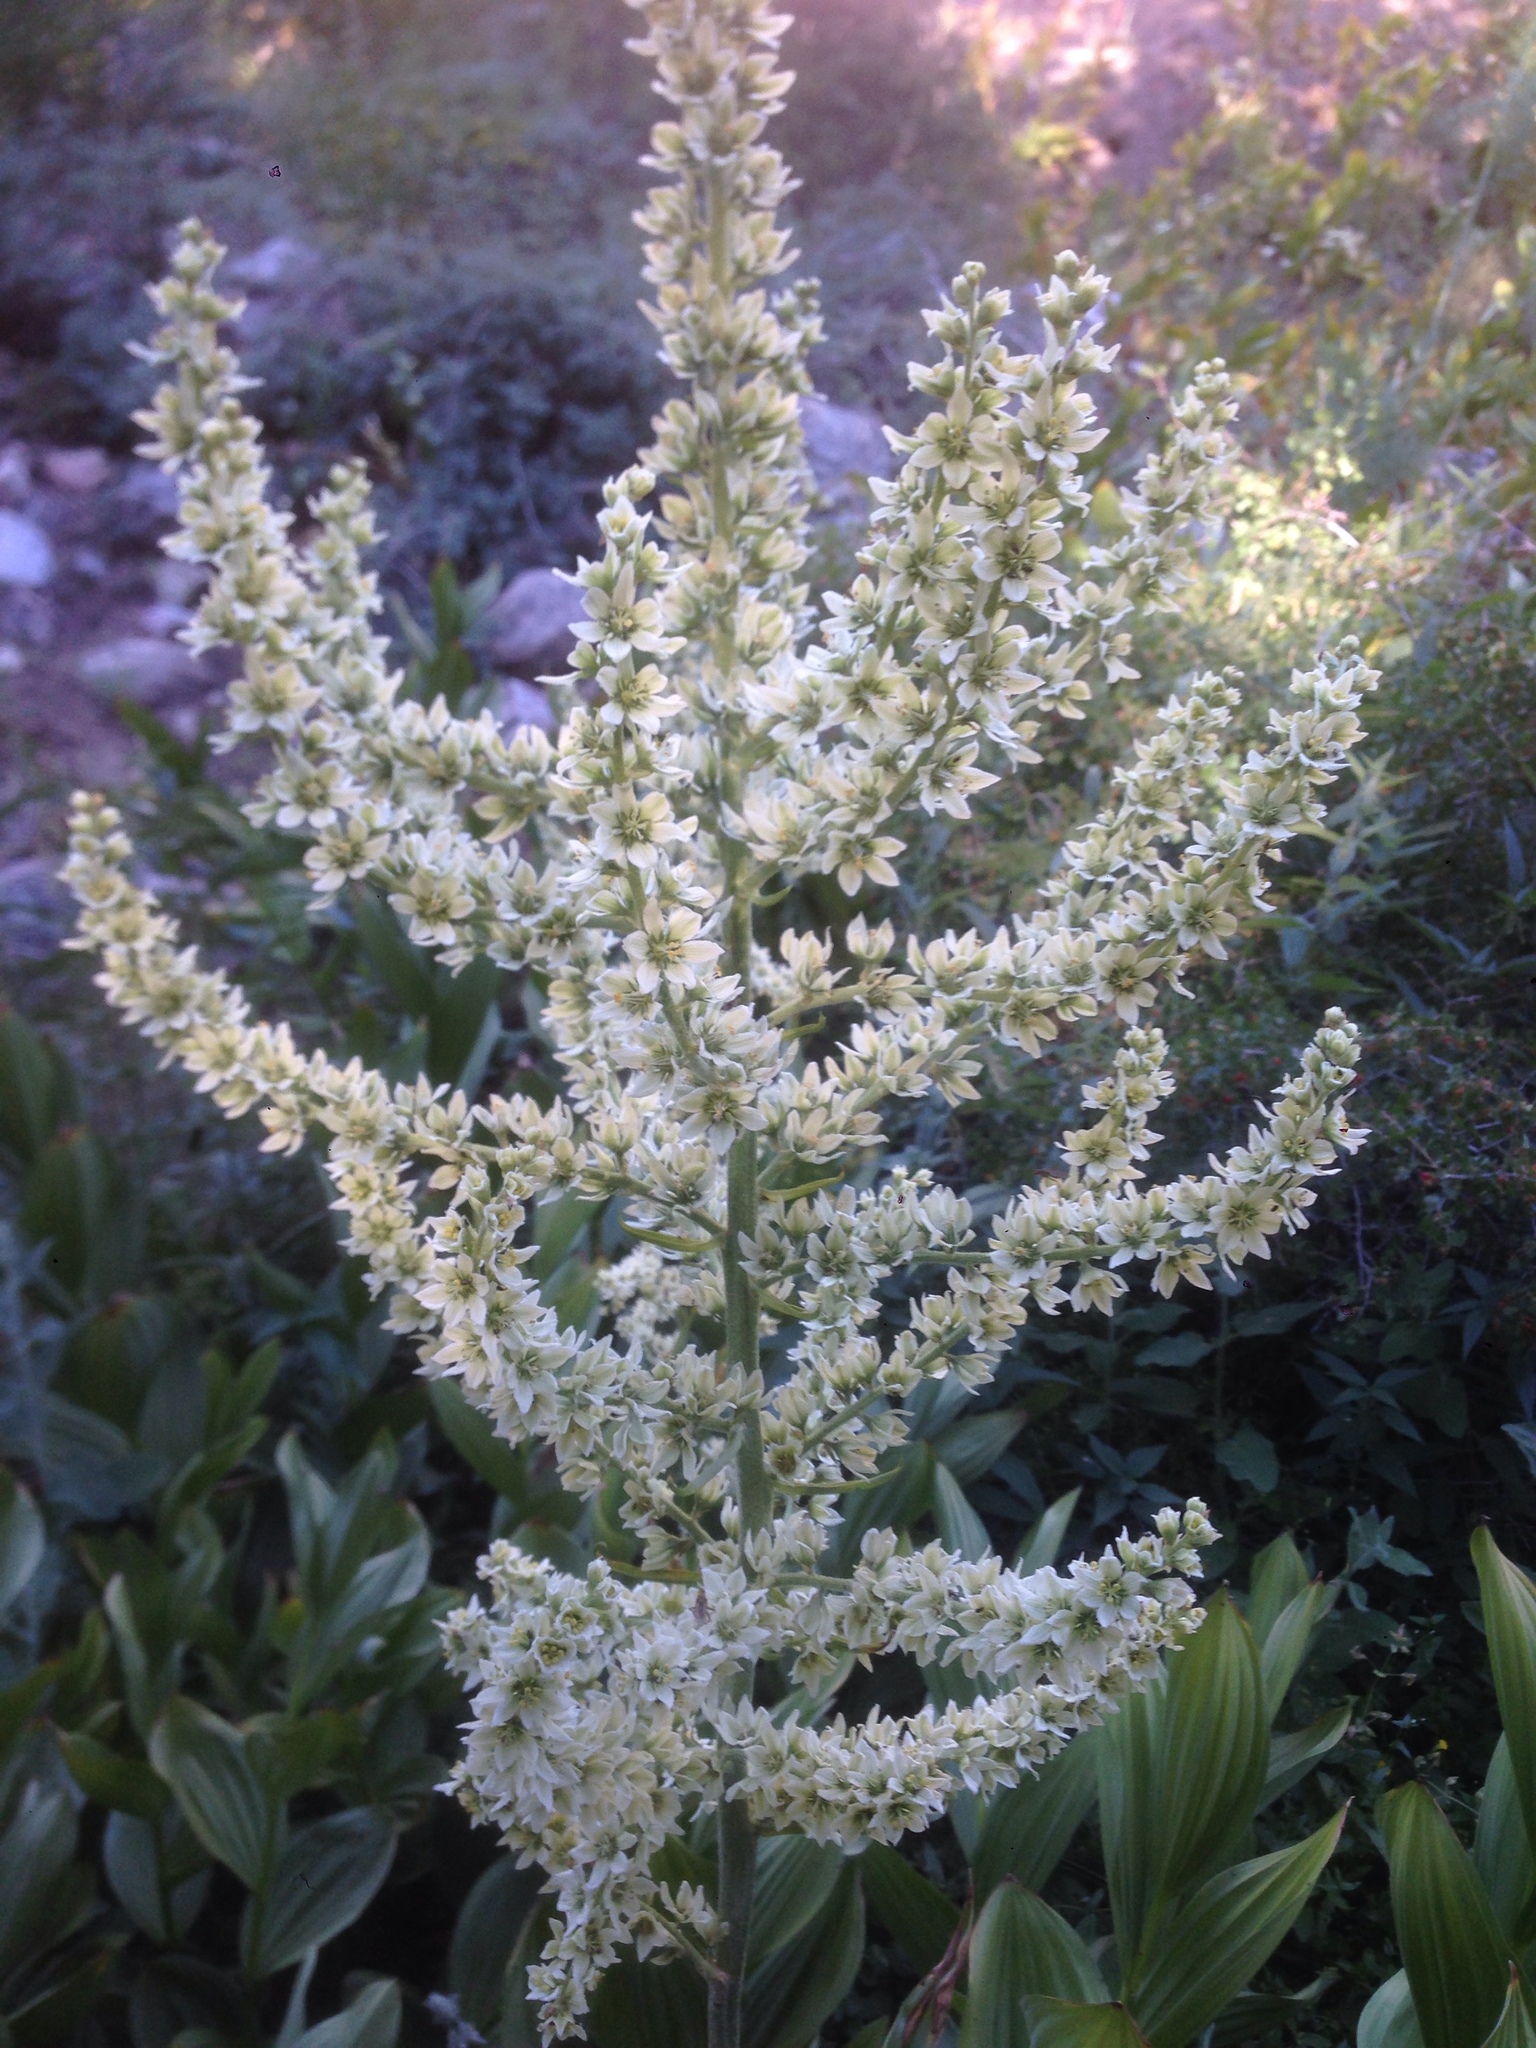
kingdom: Plantae
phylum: Tracheophyta
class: Liliopsida
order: Liliales
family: Melanthiaceae
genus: Veratrum
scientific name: Veratrum californicum
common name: California veratrum
